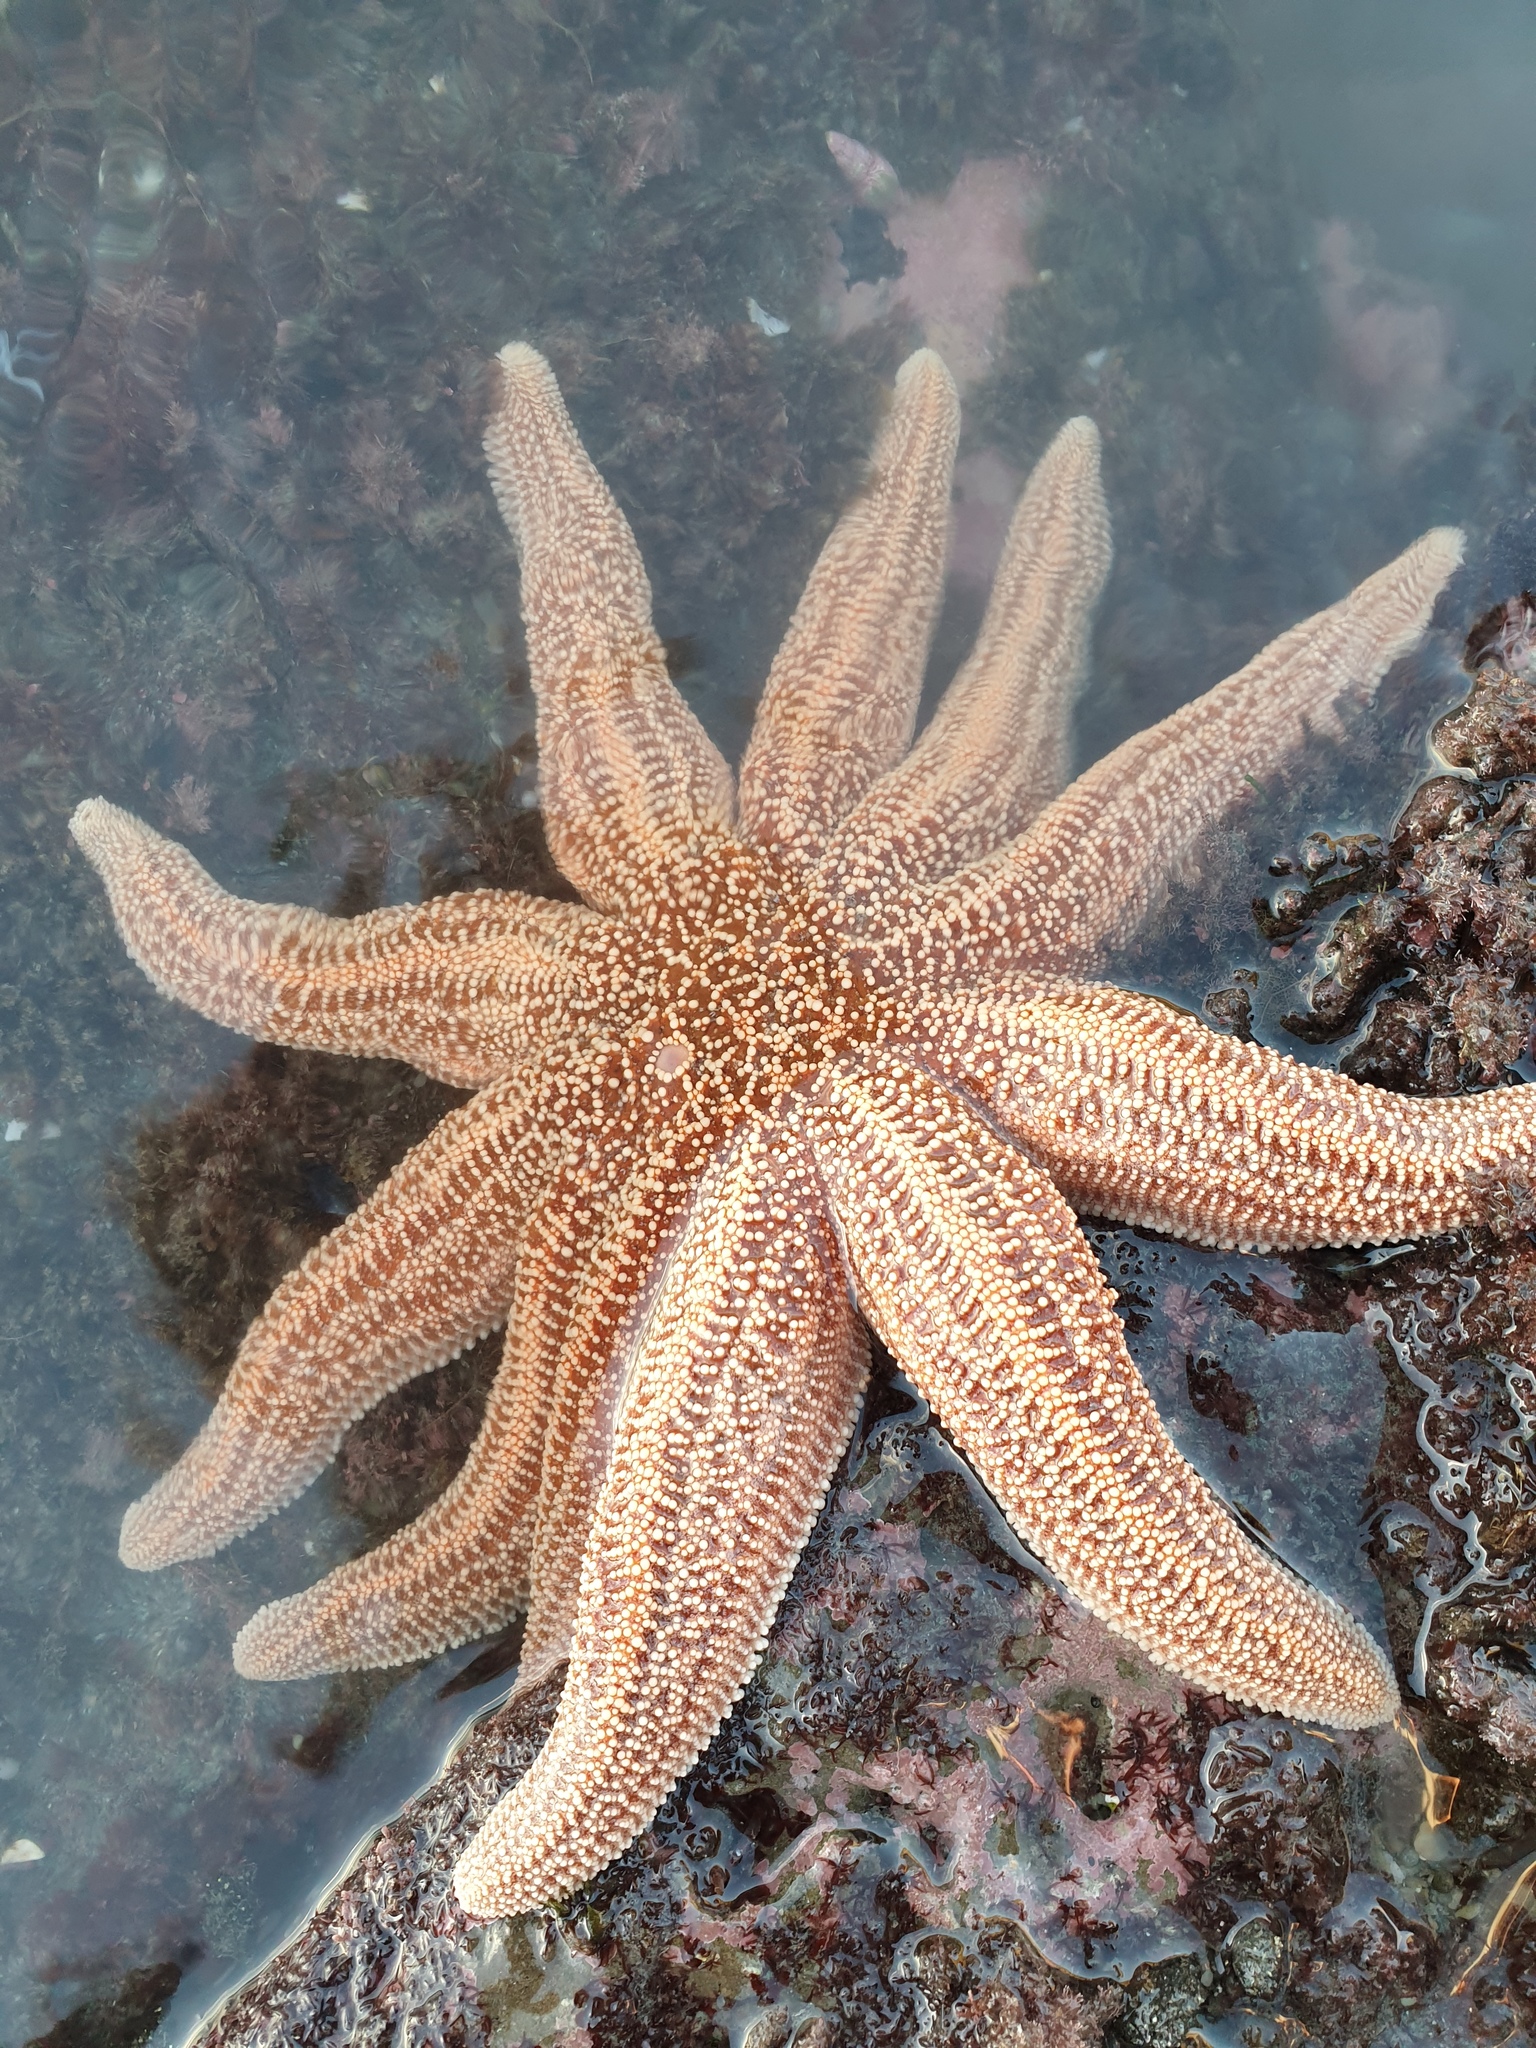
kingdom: Animalia
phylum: Echinodermata
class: Asteroidea
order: Forcipulatida
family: Stichasteridae
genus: Stichaster
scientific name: Stichaster australis
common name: Reef starfish
